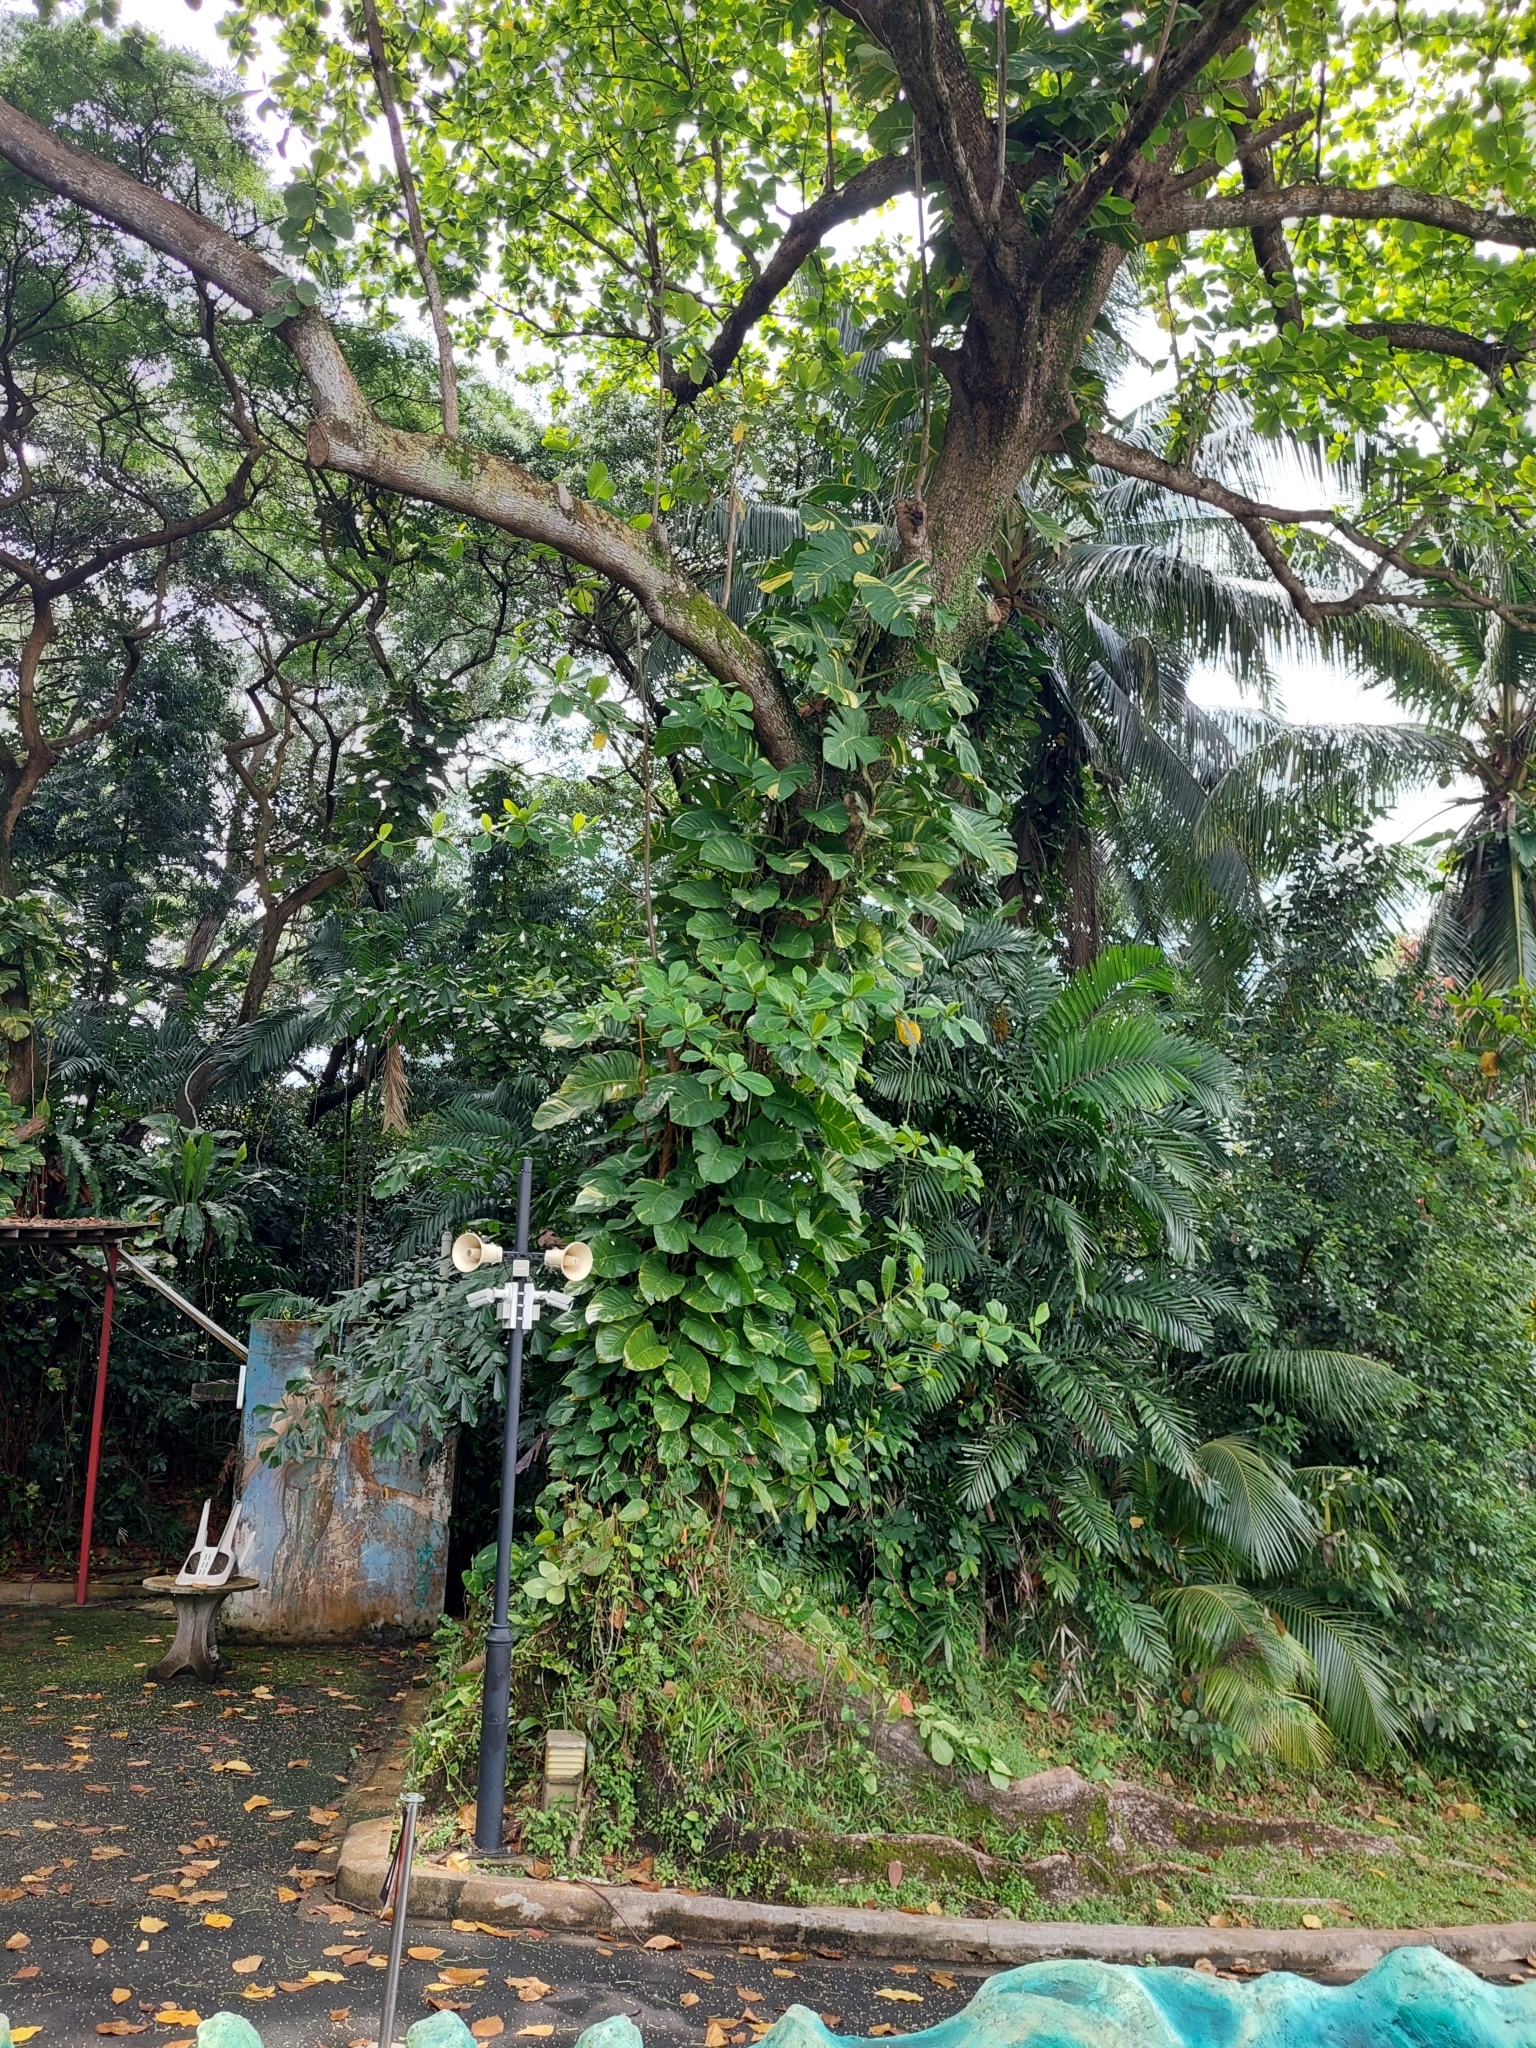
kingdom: Plantae
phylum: Tracheophyta
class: Liliopsida
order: Alismatales
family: Araceae
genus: Epipremnum
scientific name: Epipremnum aureum
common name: Golden hunter's-robe
